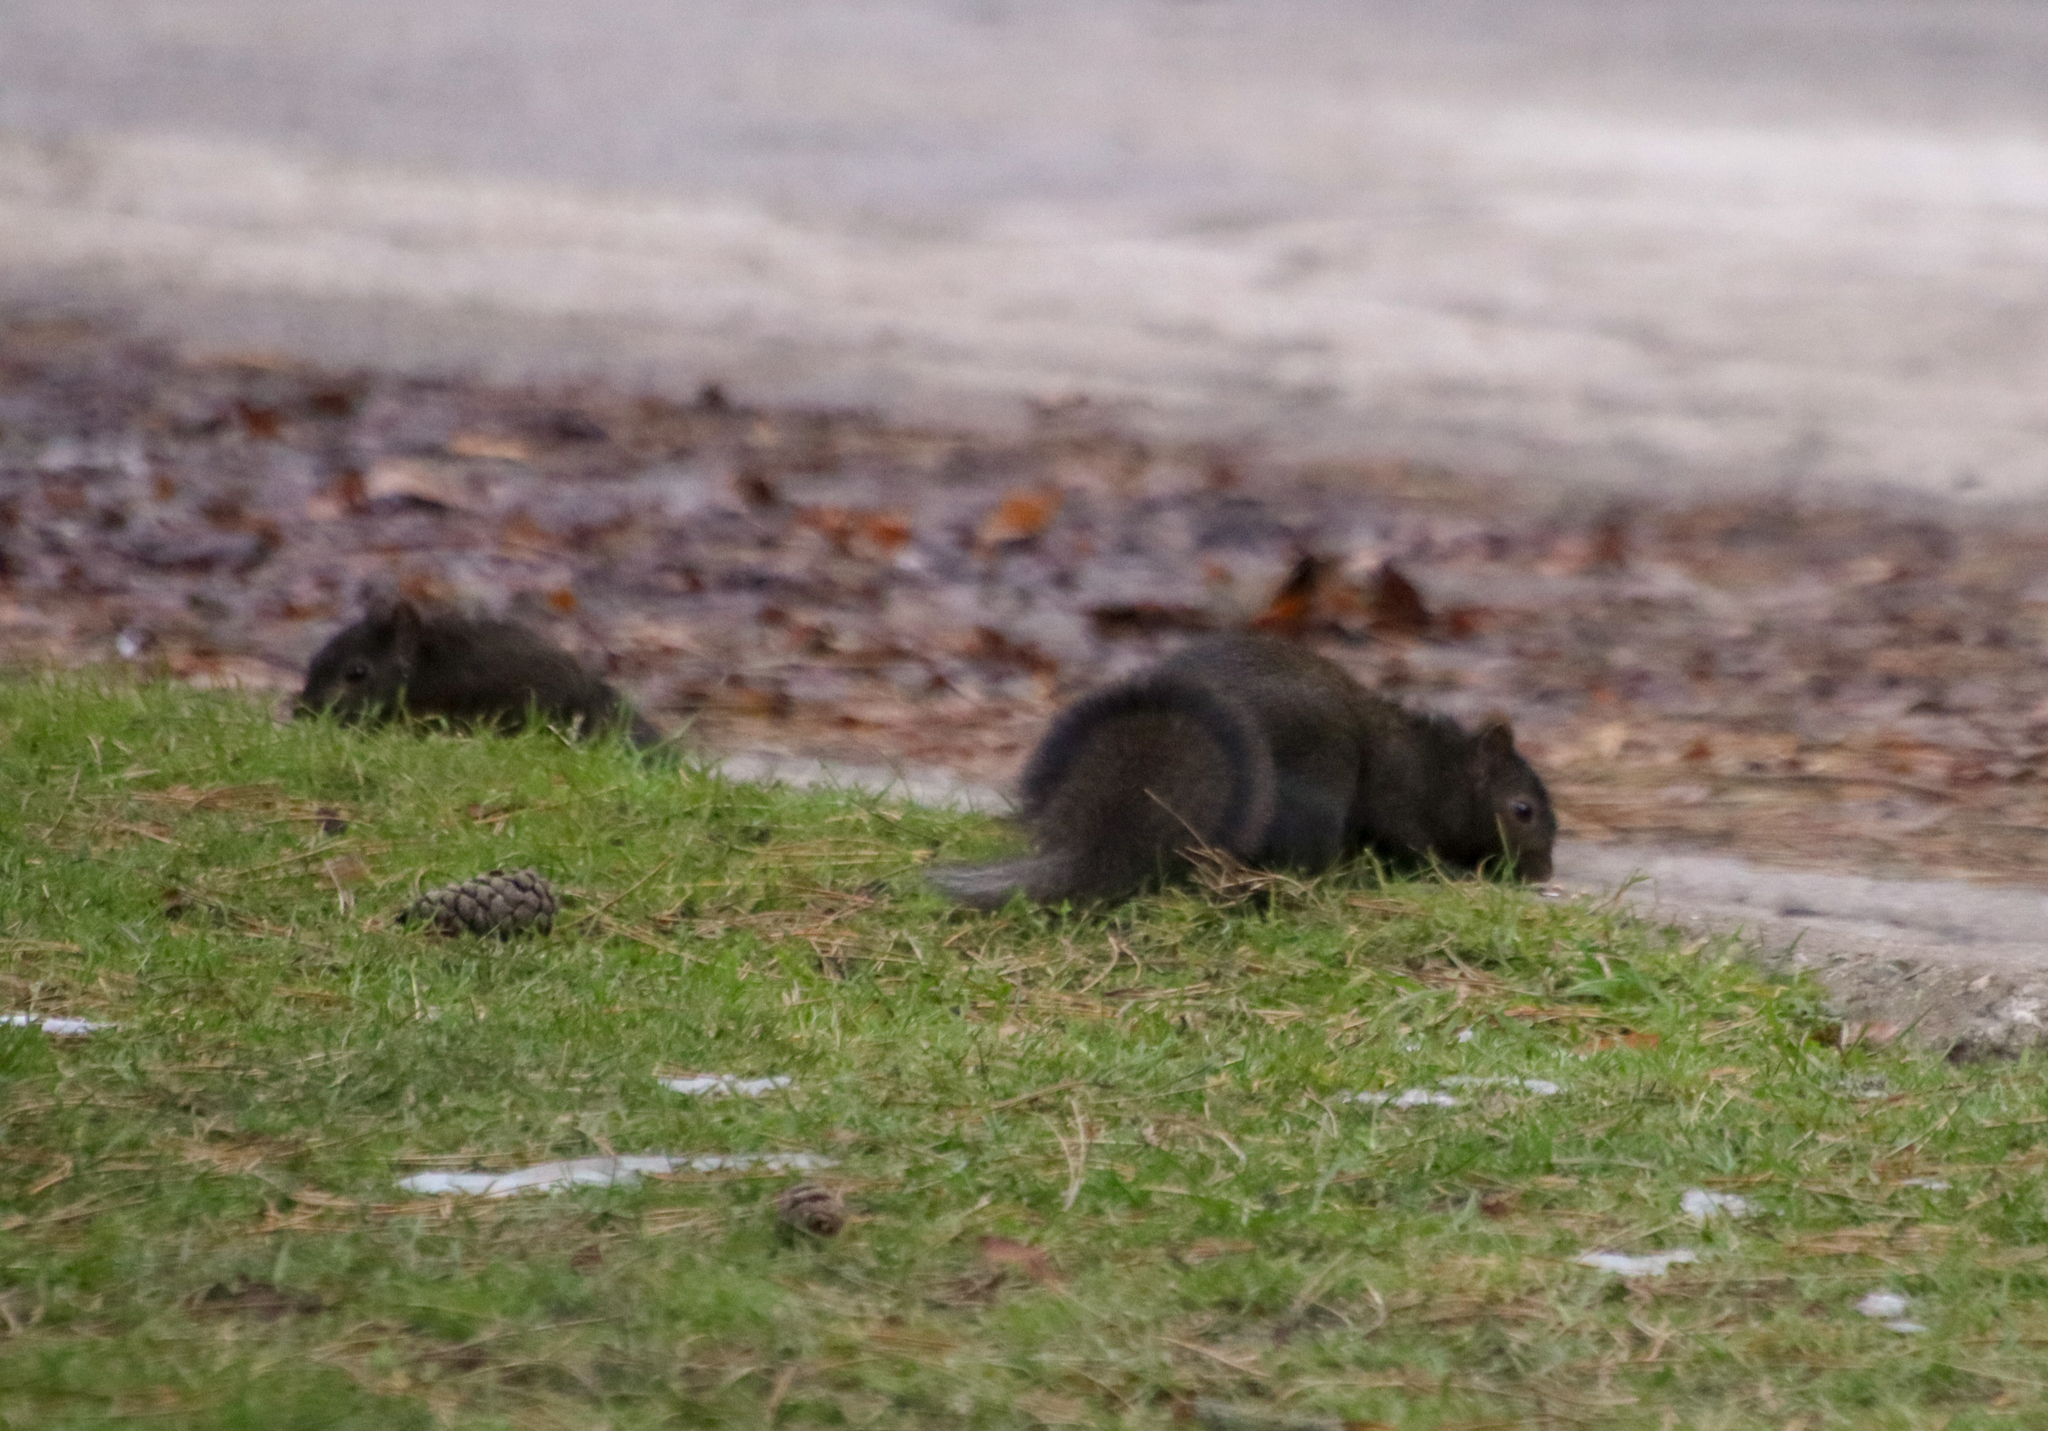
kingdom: Animalia
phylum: Chordata
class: Mammalia
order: Rodentia
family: Sciuridae
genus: Sciurus
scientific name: Sciurus carolinensis
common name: Eastern gray squirrel
